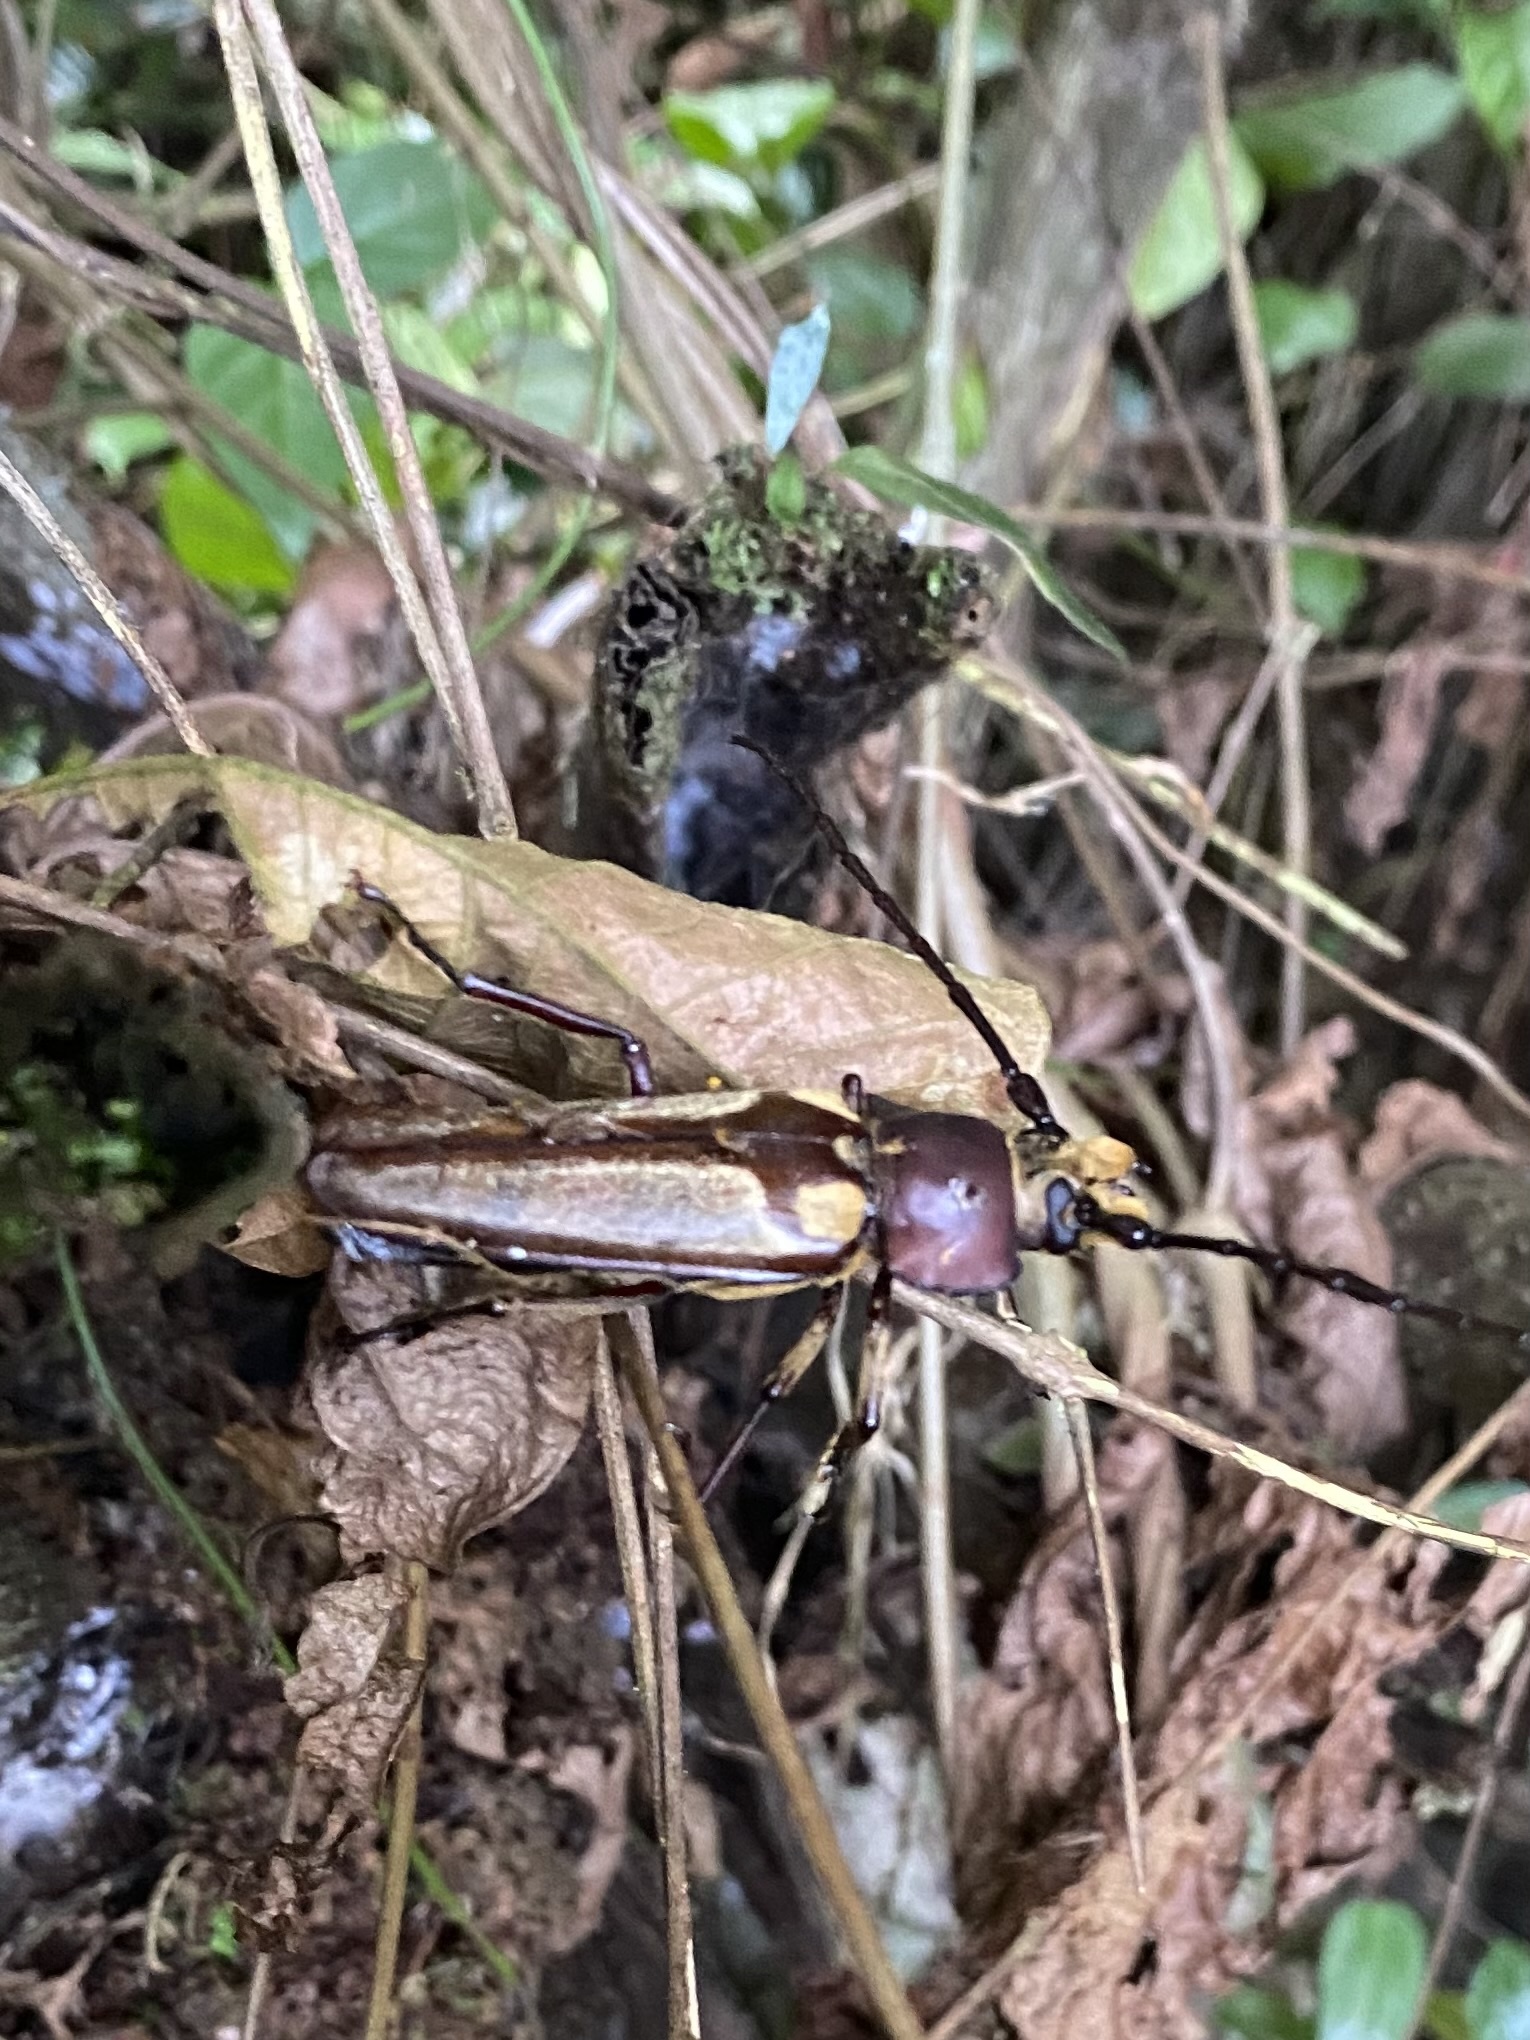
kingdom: Animalia
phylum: Arthropoda
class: Insecta
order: Coleoptera
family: Cerambycidae
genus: Callipogon
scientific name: Callipogon lemoinei
